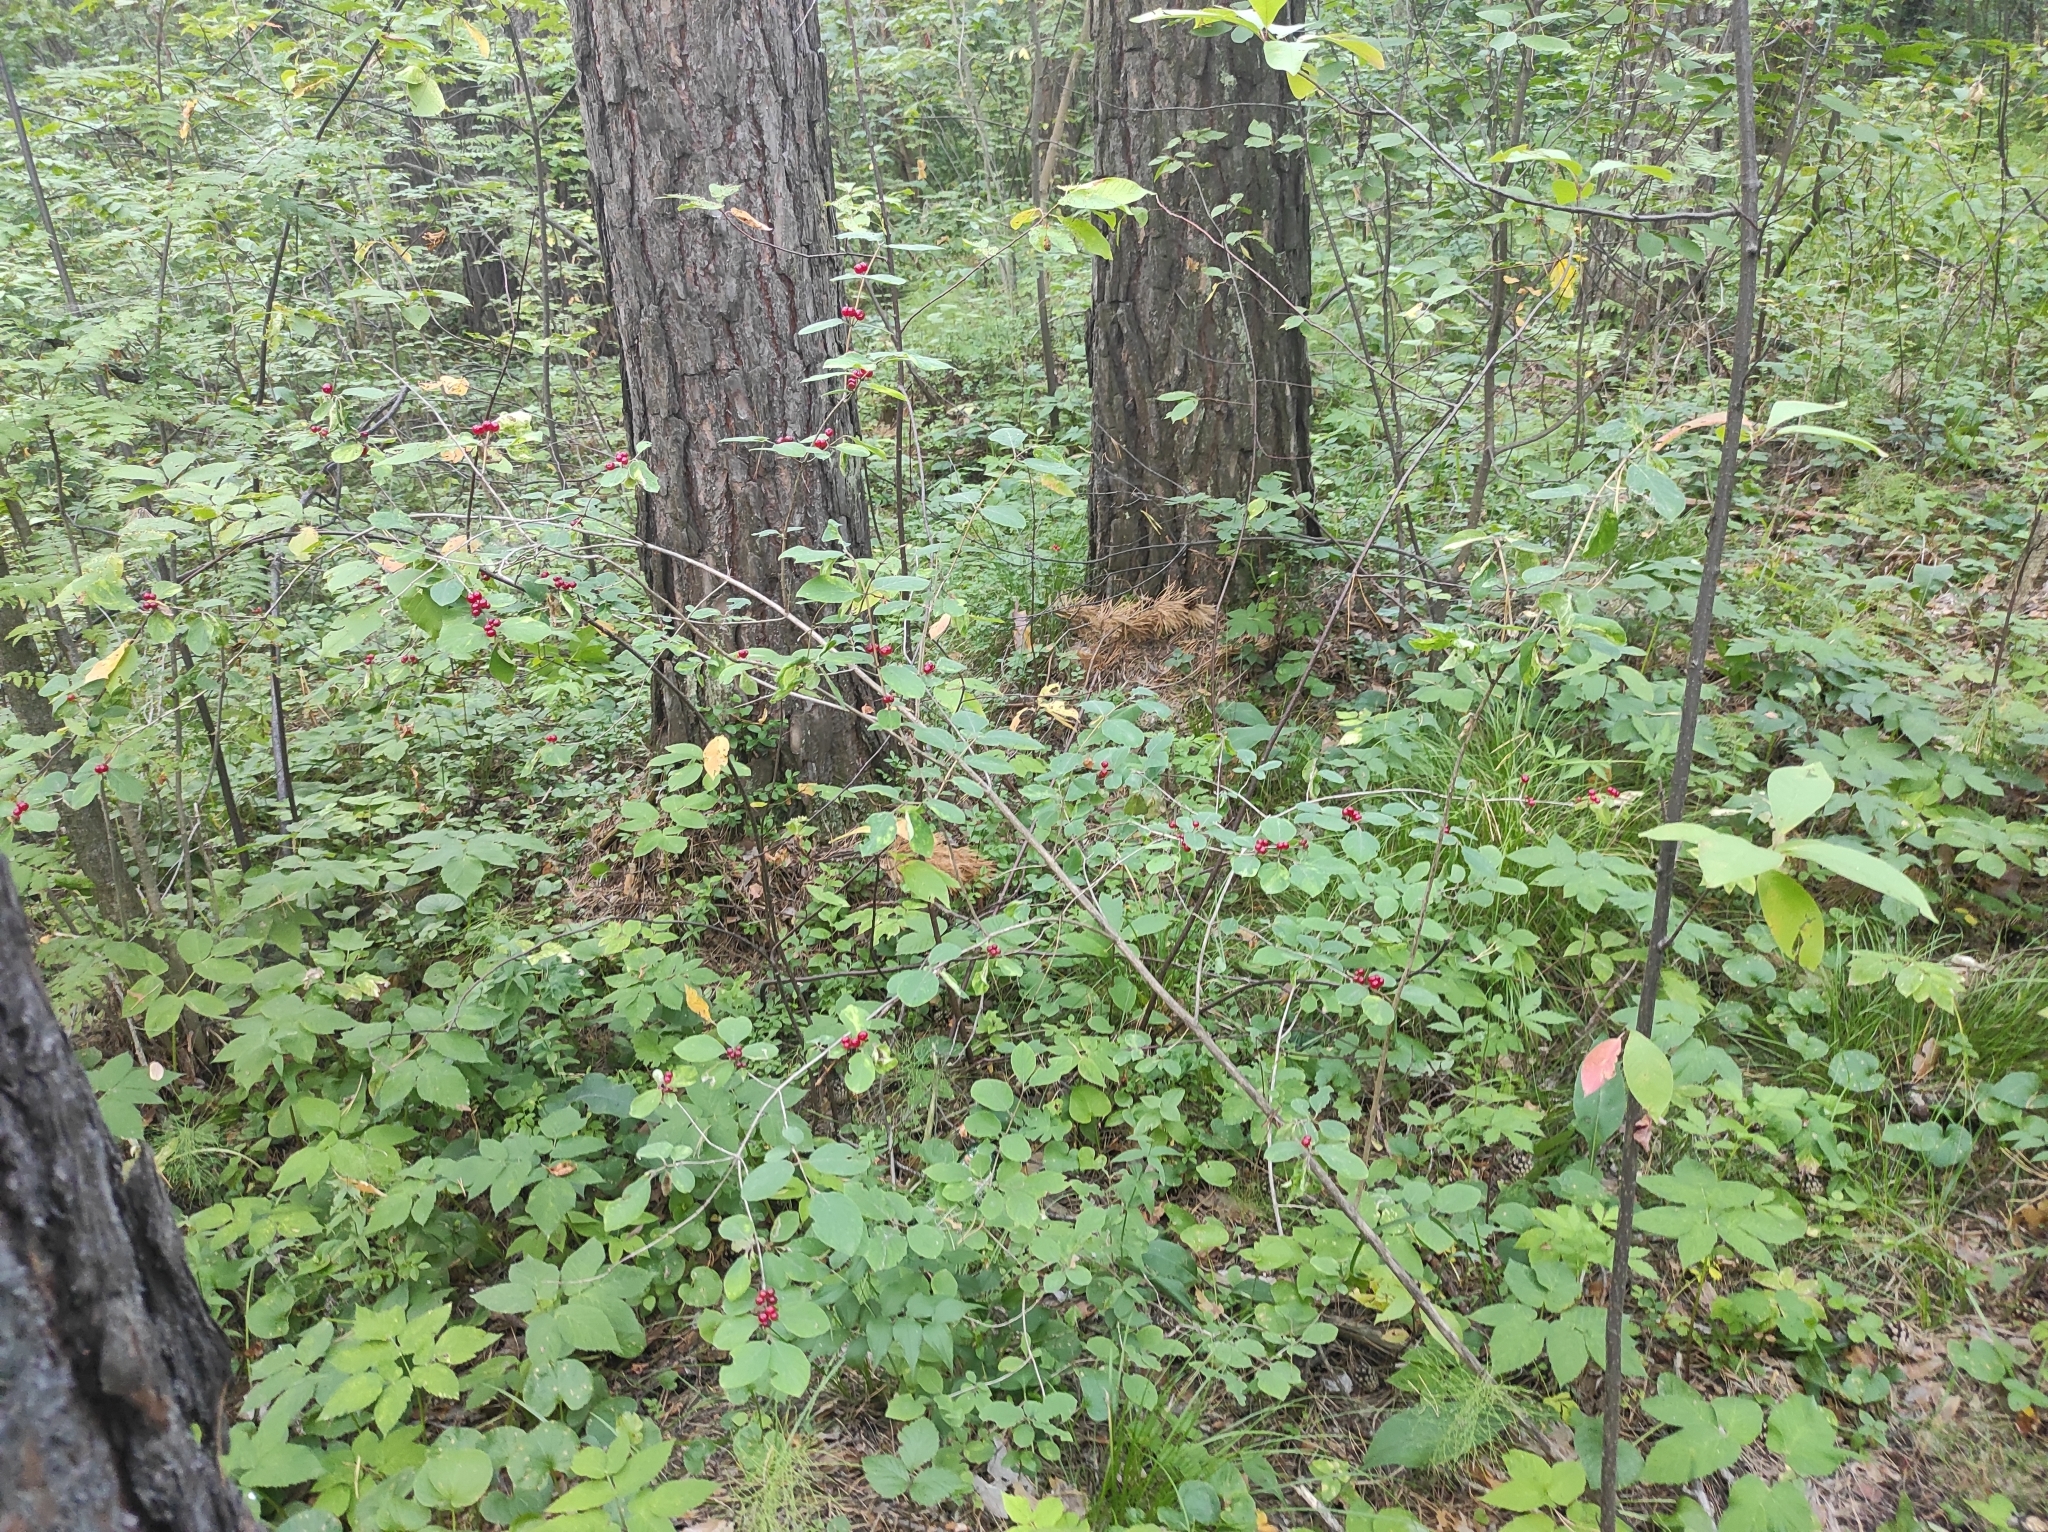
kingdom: Plantae
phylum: Tracheophyta
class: Magnoliopsida
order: Dipsacales
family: Caprifoliaceae
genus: Lonicera
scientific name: Lonicera xylosteum
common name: Fly honeysuckle
